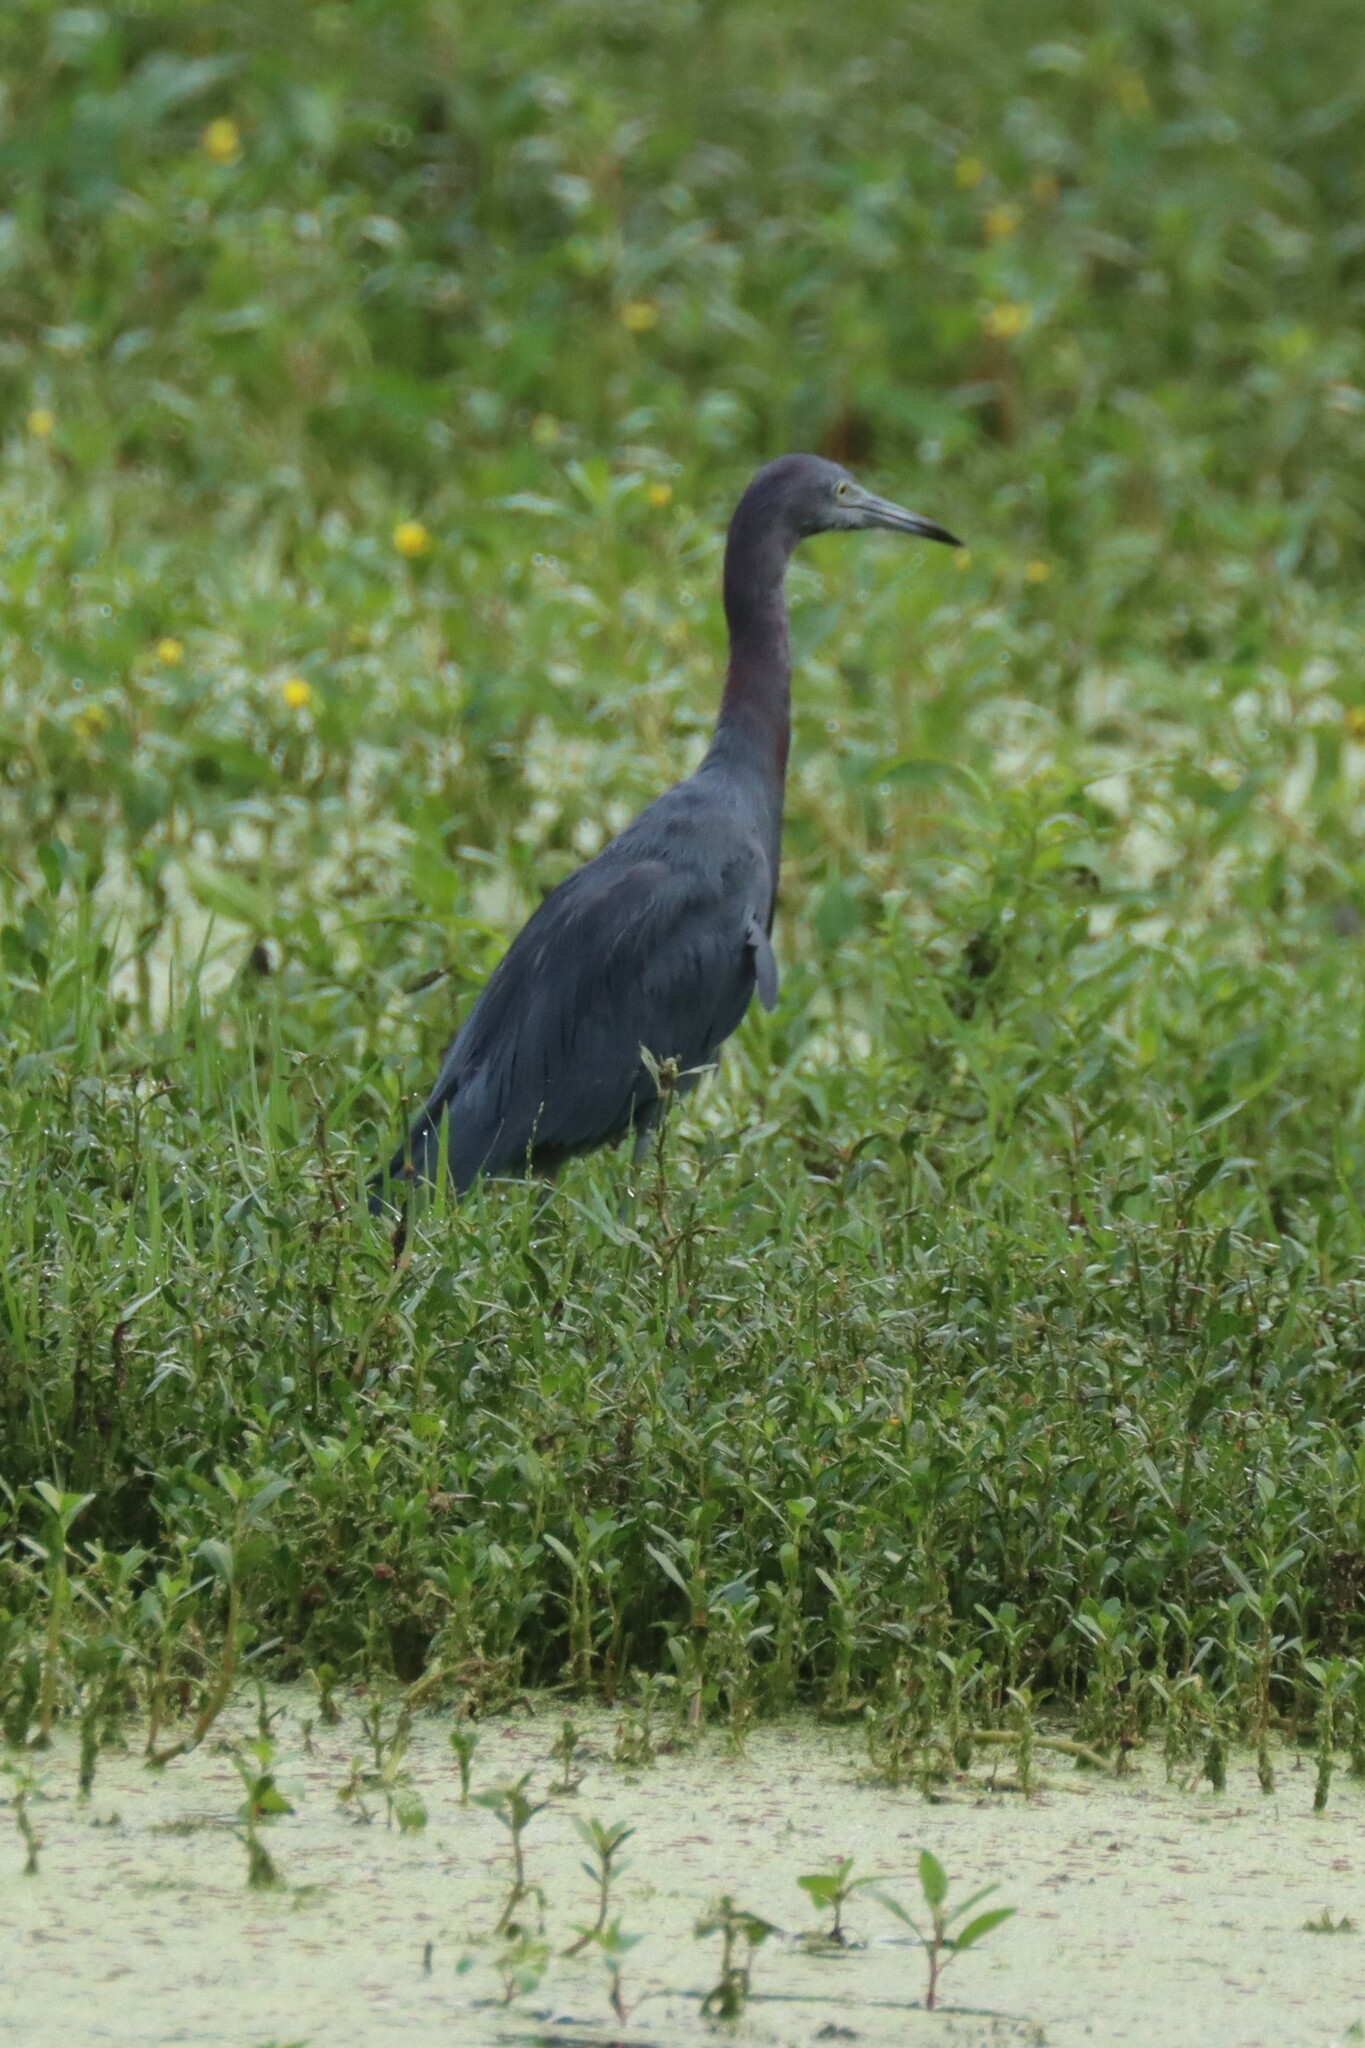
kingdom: Animalia
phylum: Chordata
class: Aves
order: Pelecaniformes
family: Ardeidae
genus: Egretta
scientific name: Egretta caerulea
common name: Little blue heron
